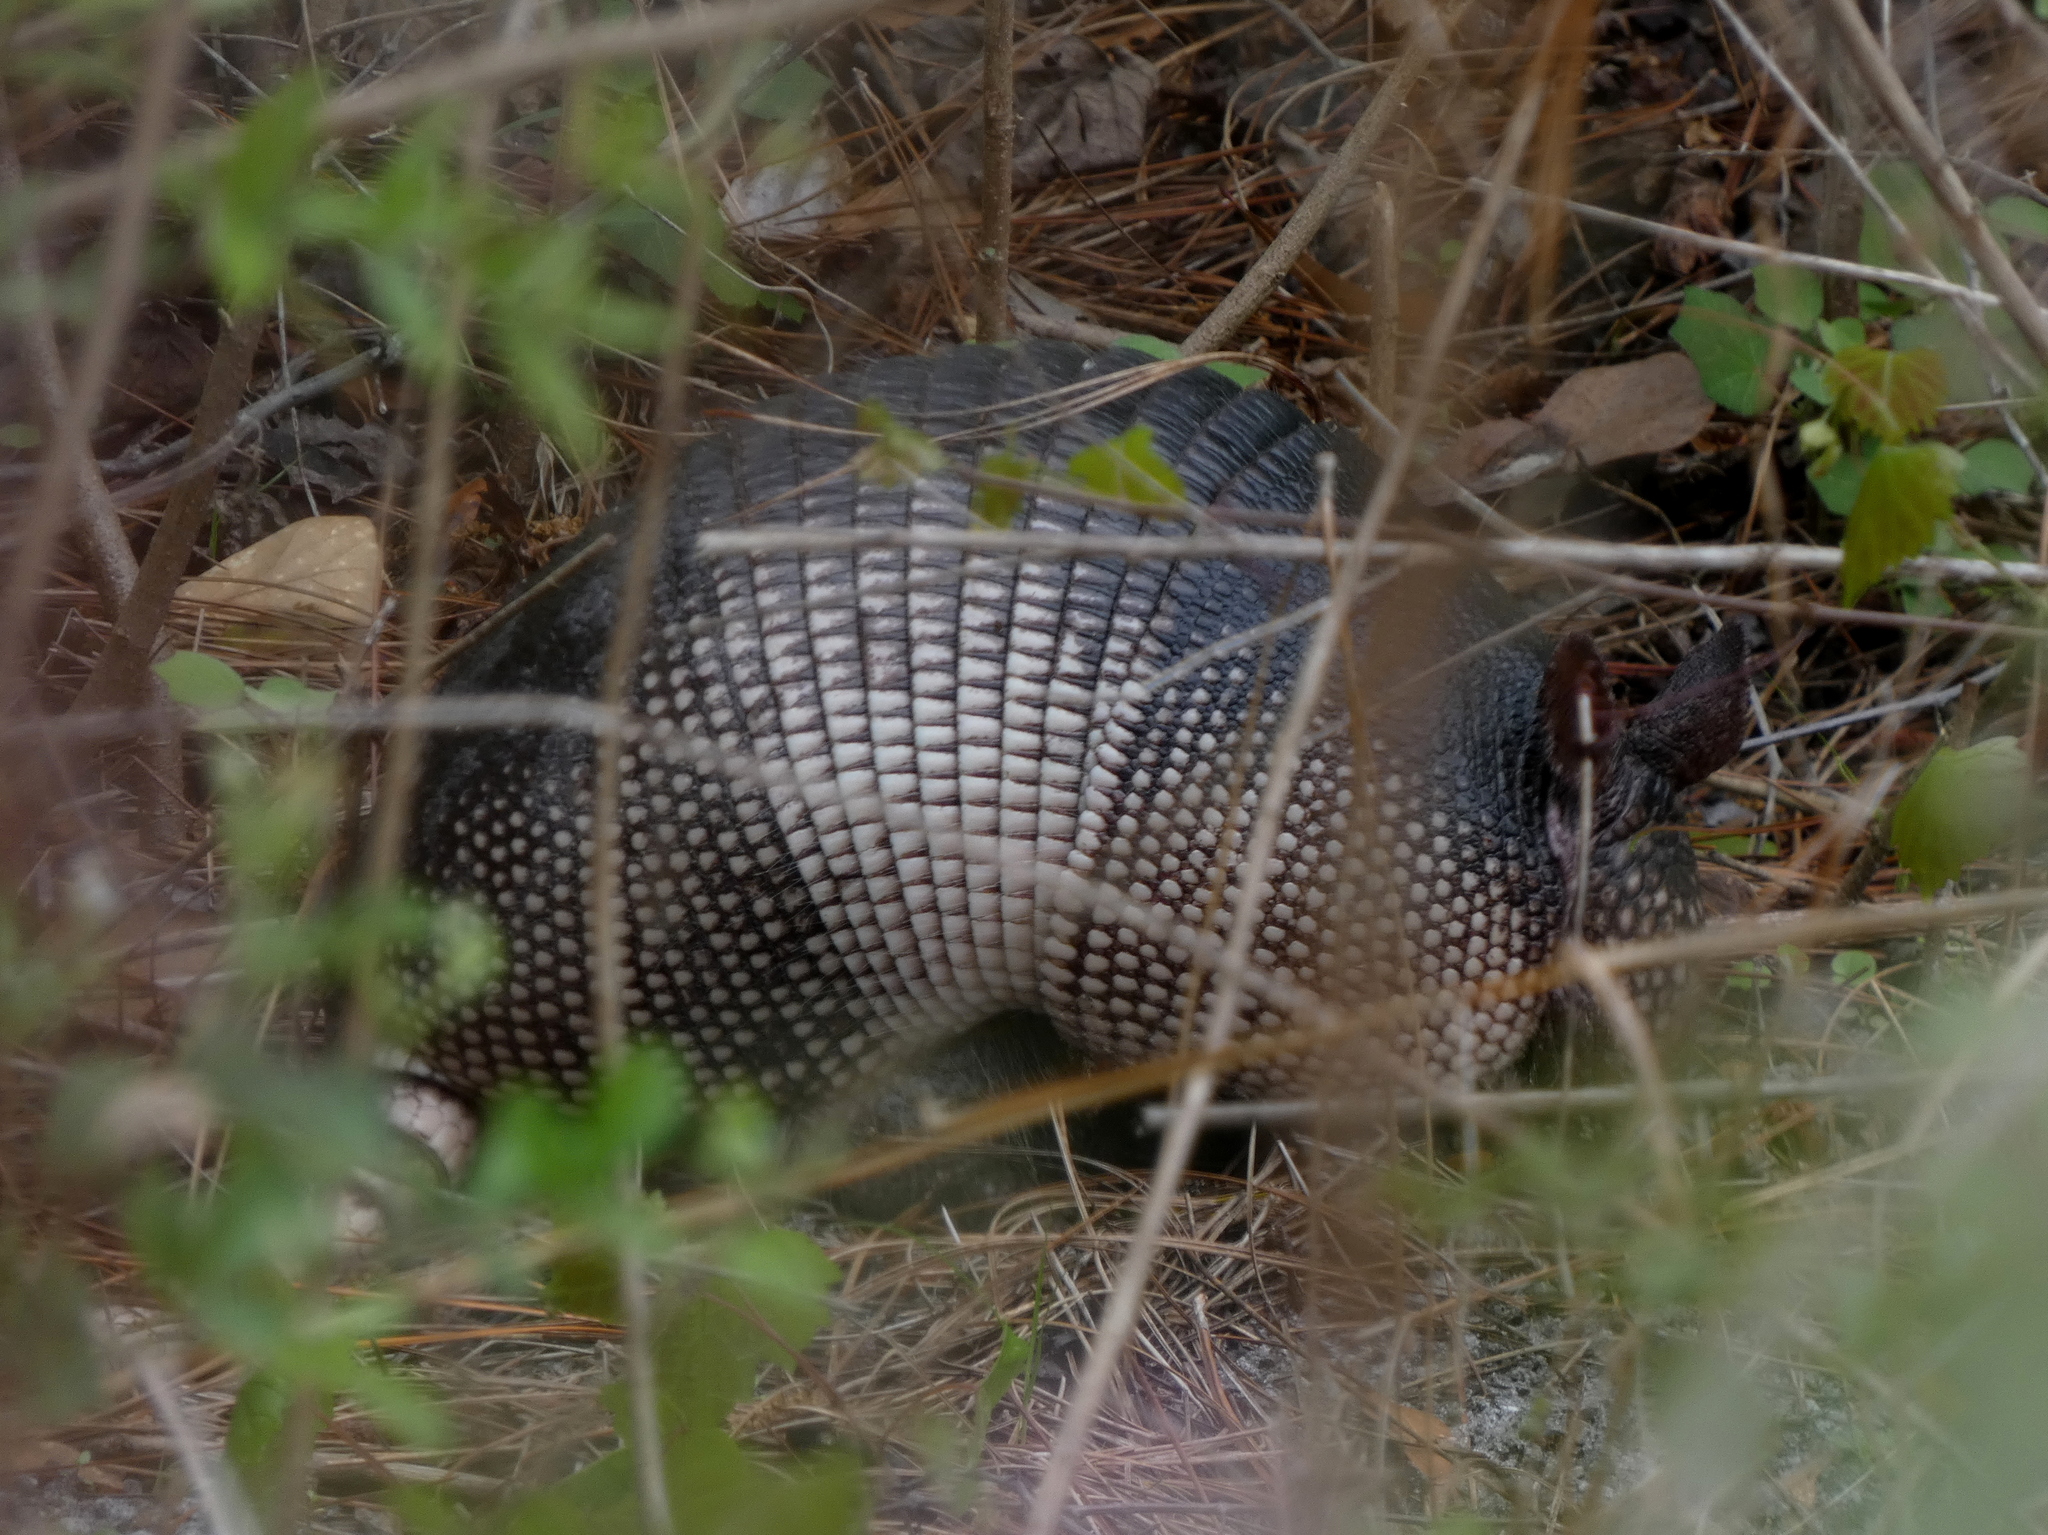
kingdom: Animalia
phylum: Chordata
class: Mammalia
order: Cingulata
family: Dasypodidae
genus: Dasypus
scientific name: Dasypus novemcinctus
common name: Nine-banded armadillo
